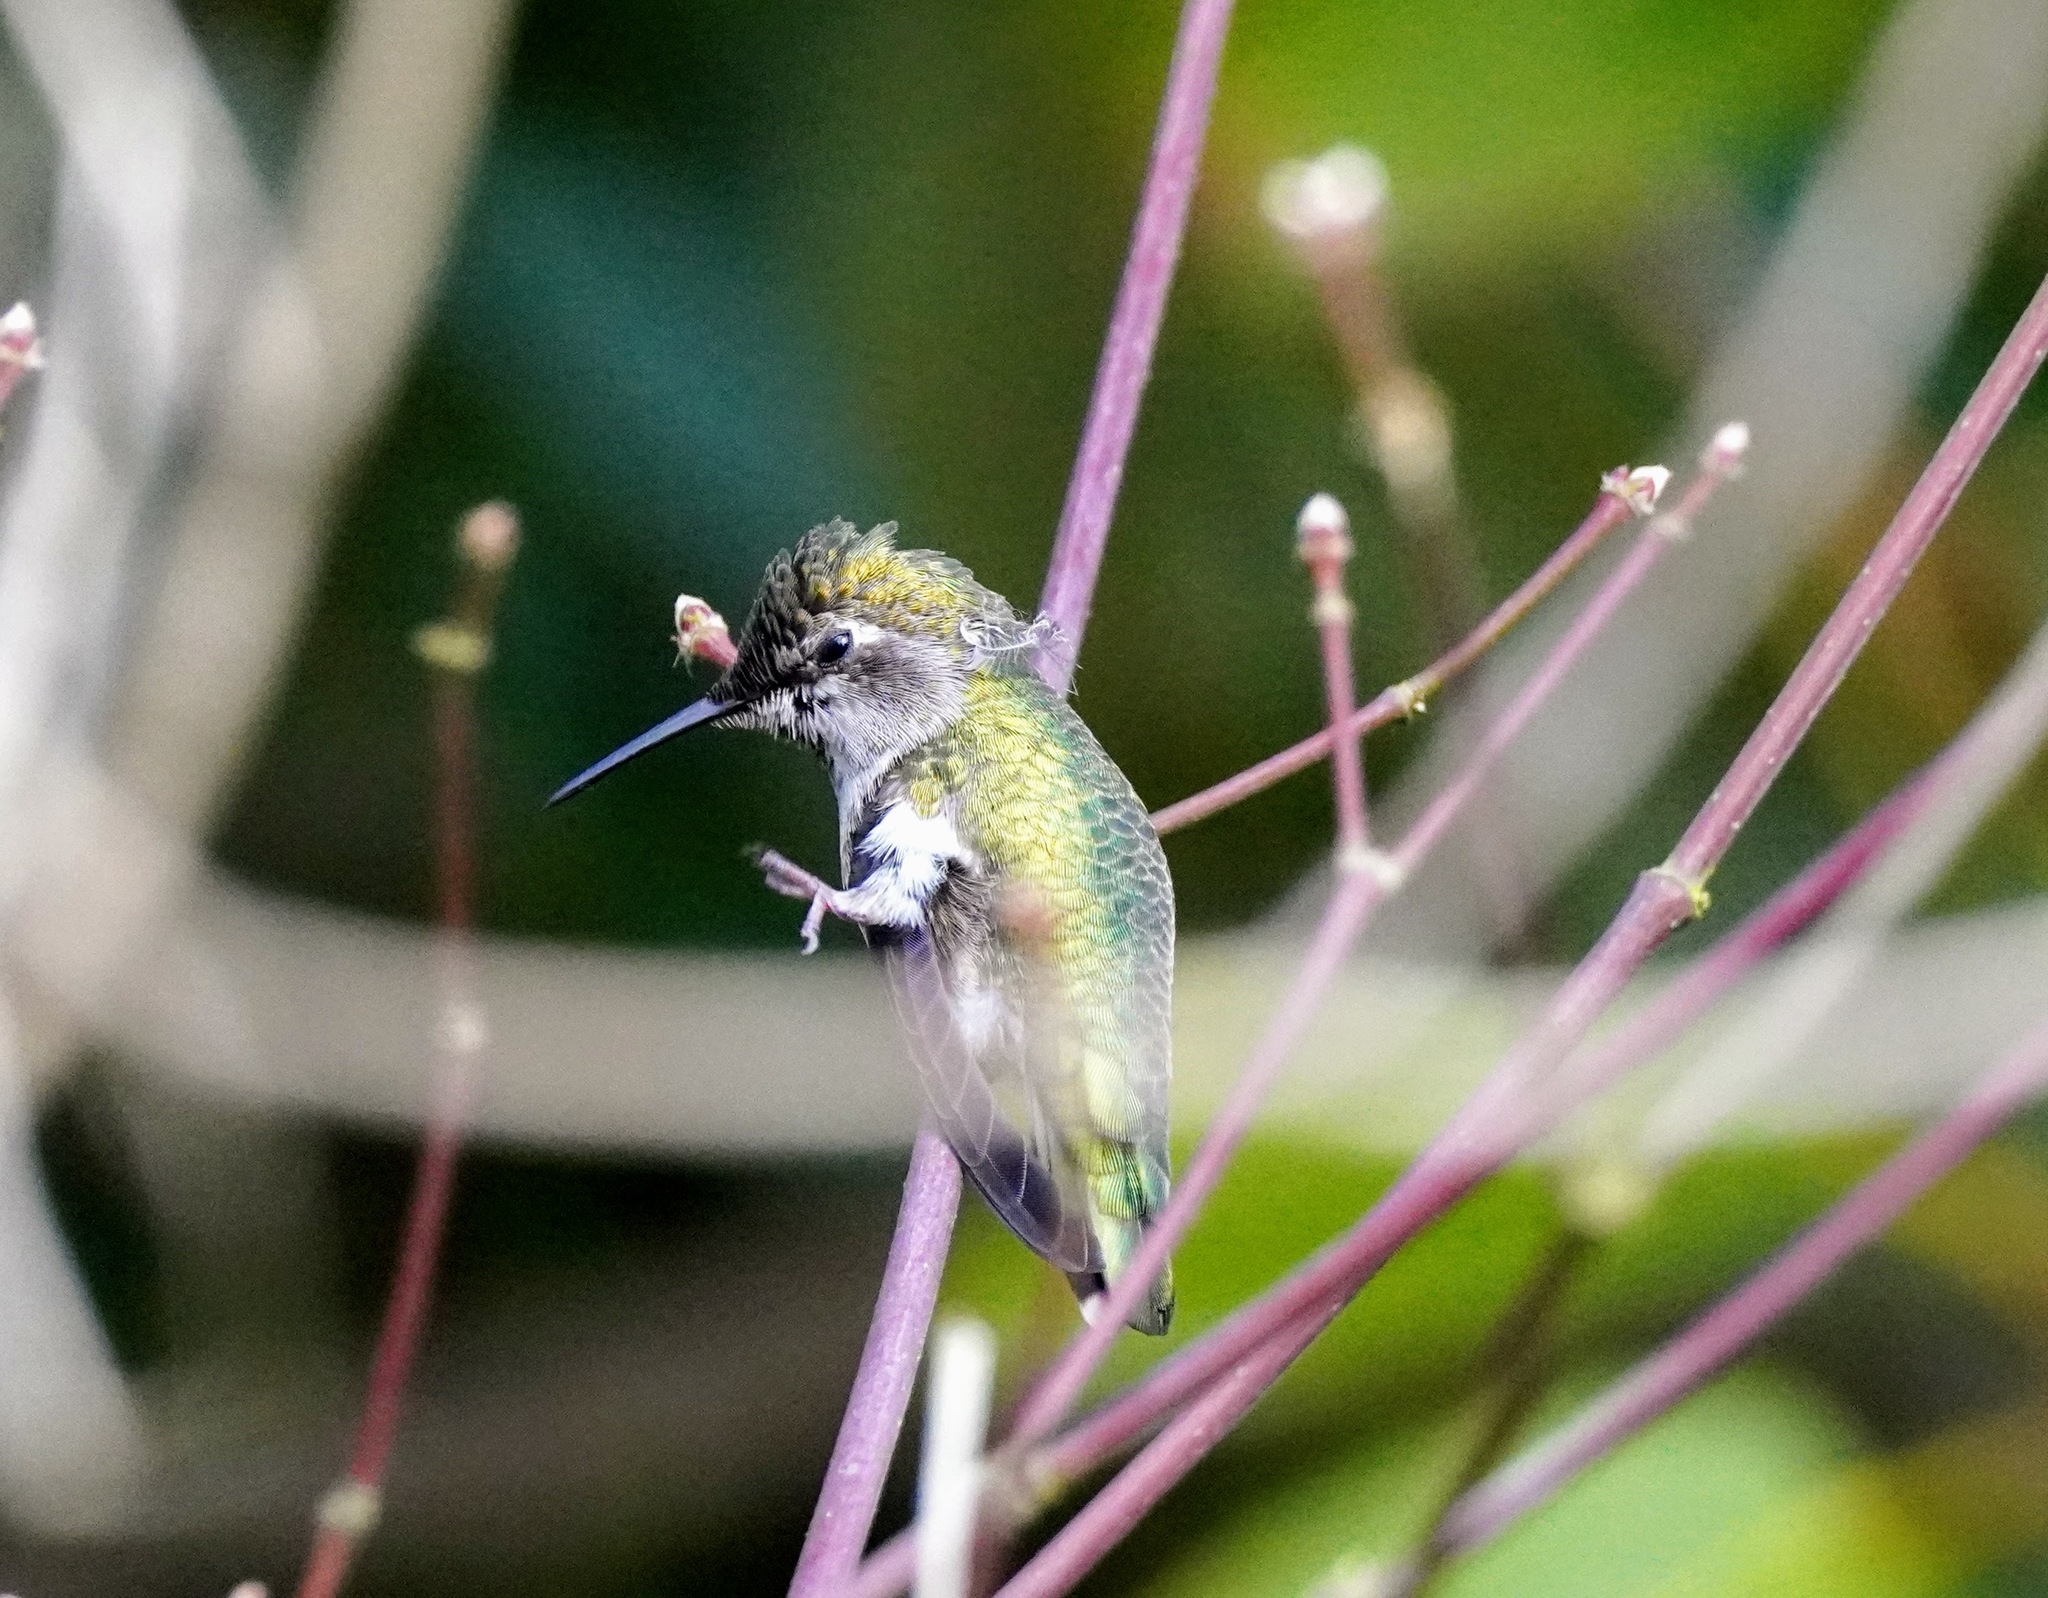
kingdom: Animalia
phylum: Chordata
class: Aves
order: Apodiformes
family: Trochilidae
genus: Calypte
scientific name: Calypte anna
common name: Anna's hummingbird
